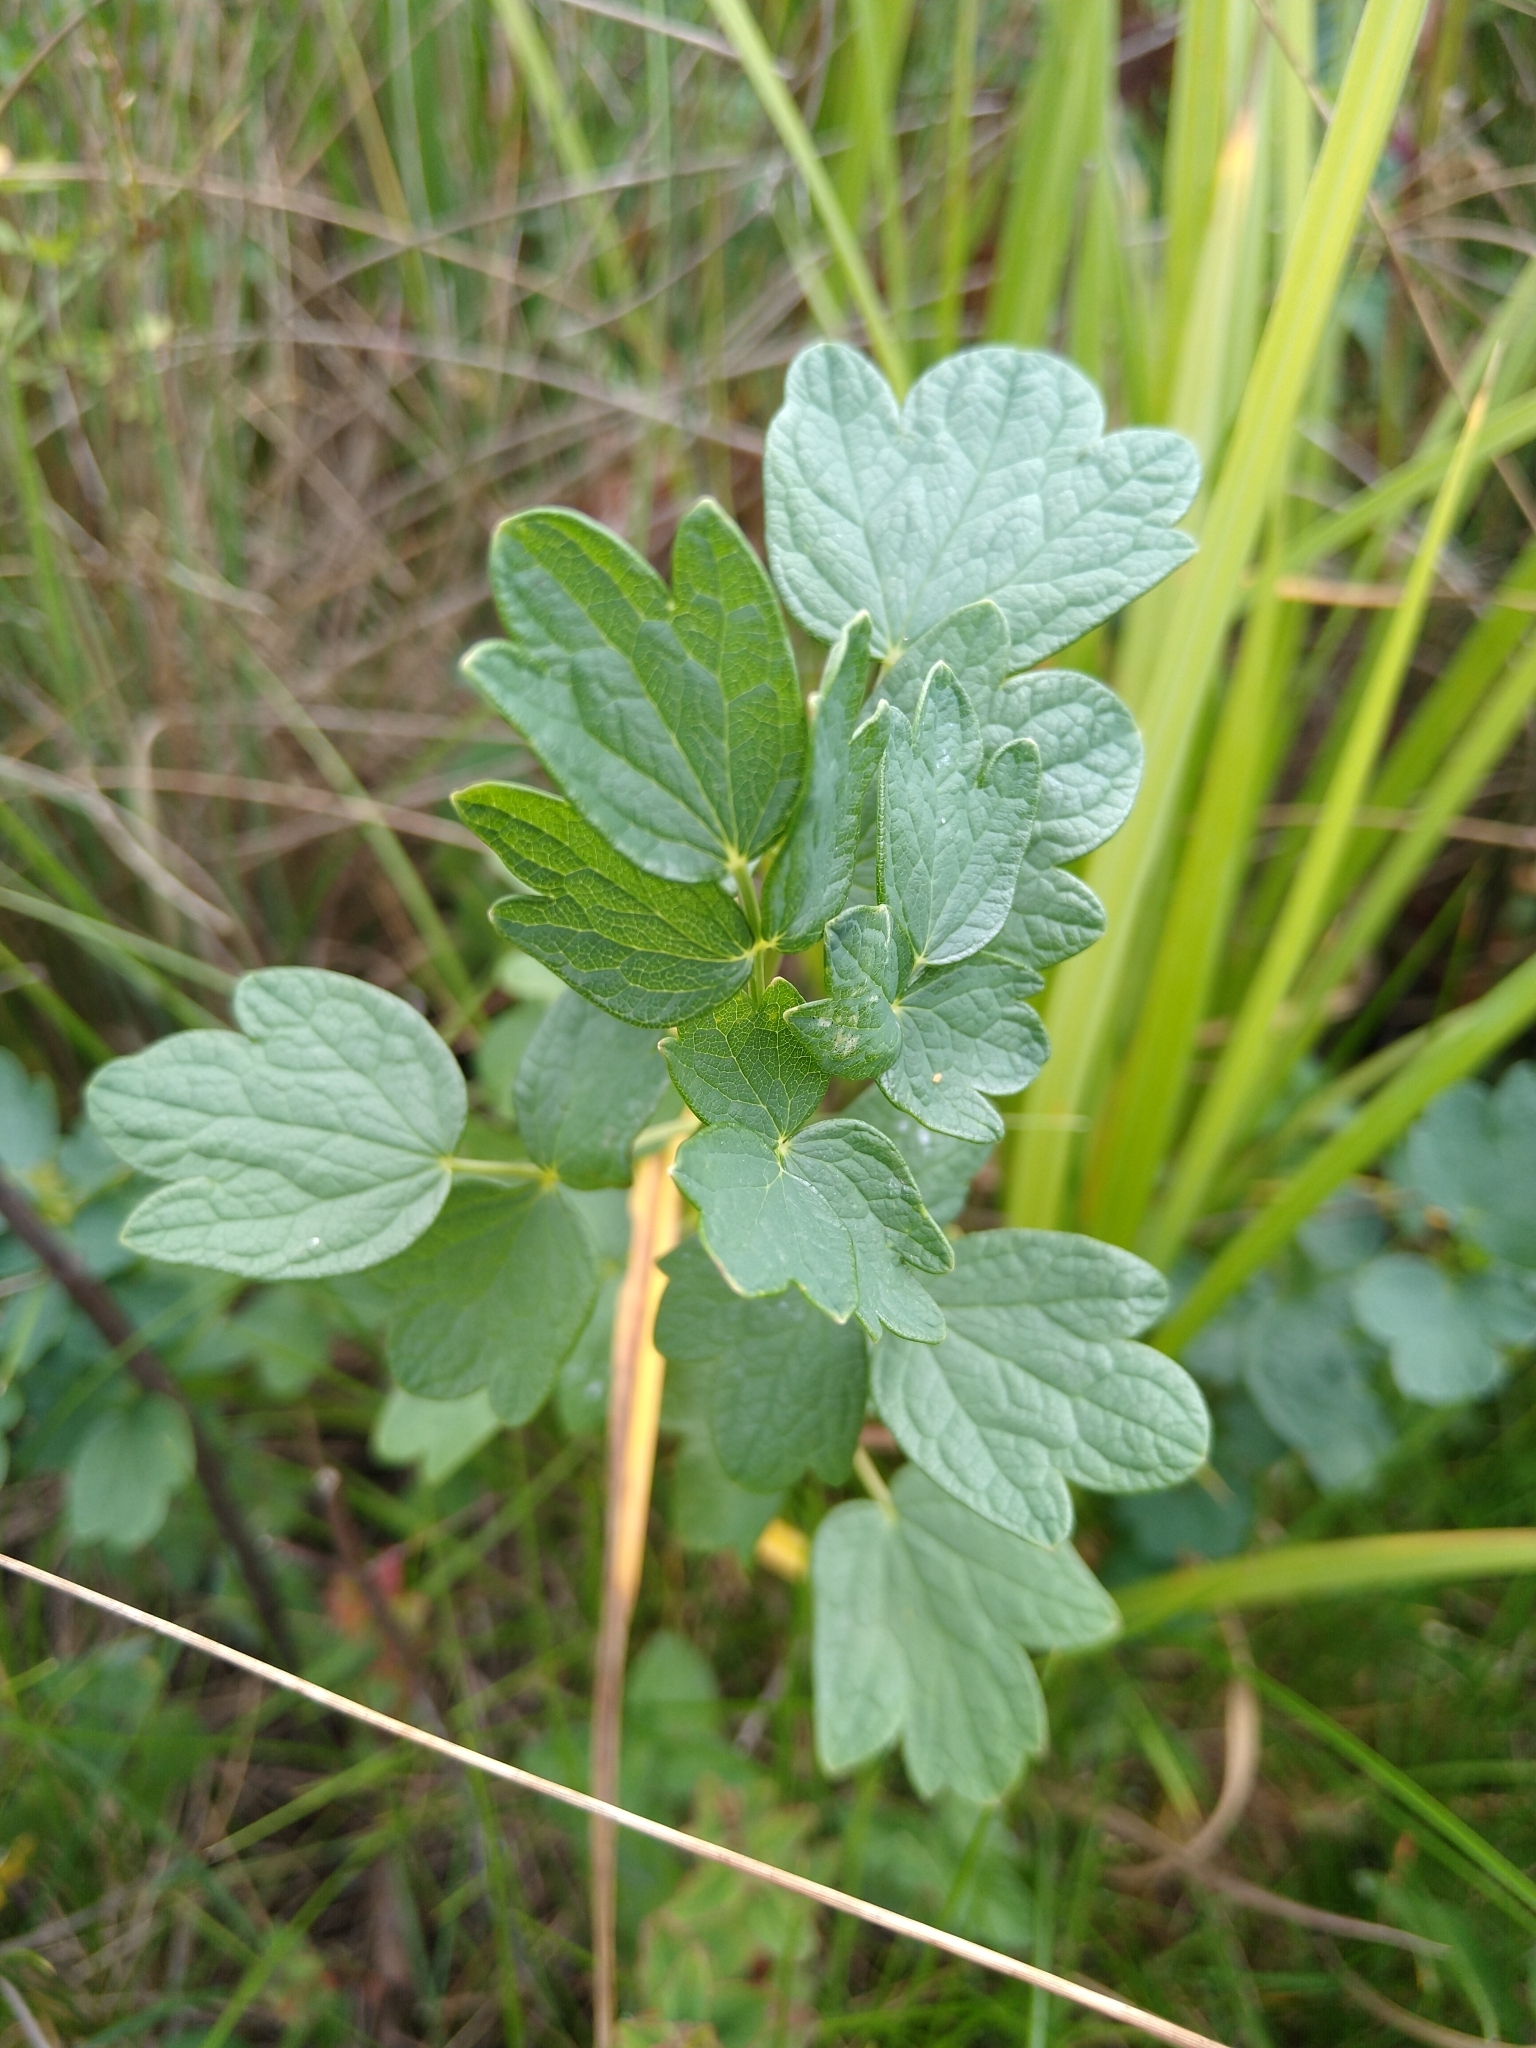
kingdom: Plantae
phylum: Tracheophyta
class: Magnoliopsida
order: Ranunculales
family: Ranunculaceae
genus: Thalictrum
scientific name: Thalictrum flavum
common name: Common meadow-rue
